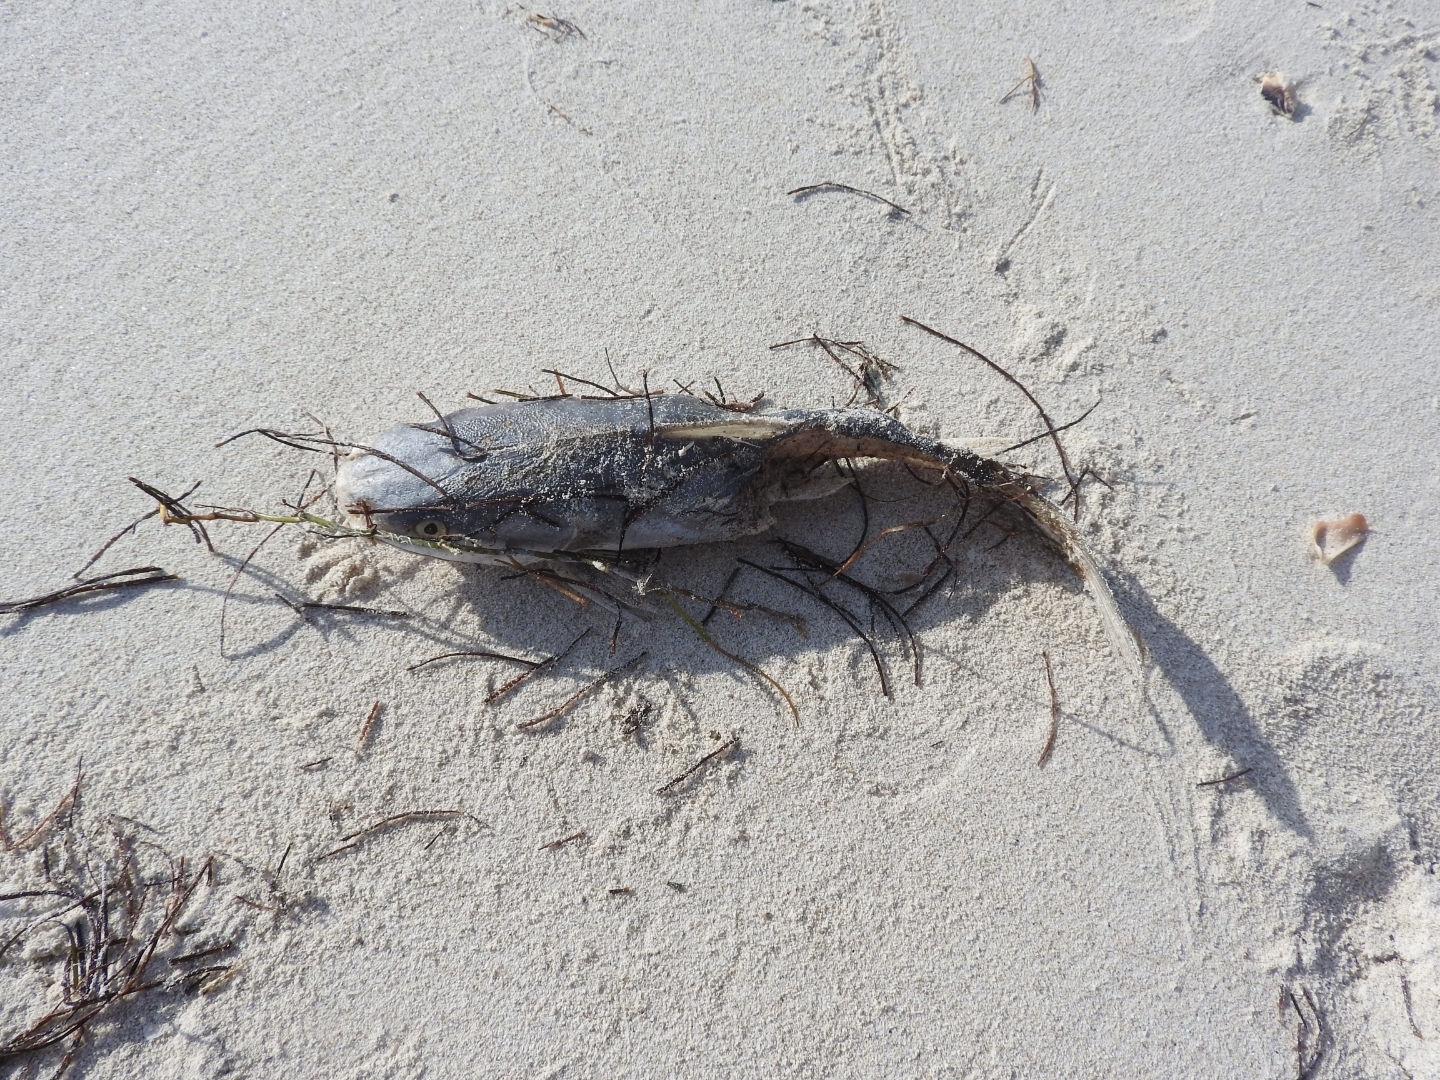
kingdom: Animalia
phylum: Chordata
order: Siluriformes
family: Ariidae
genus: Ariopsis
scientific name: Ariopsis felis
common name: Hardhead catfish
